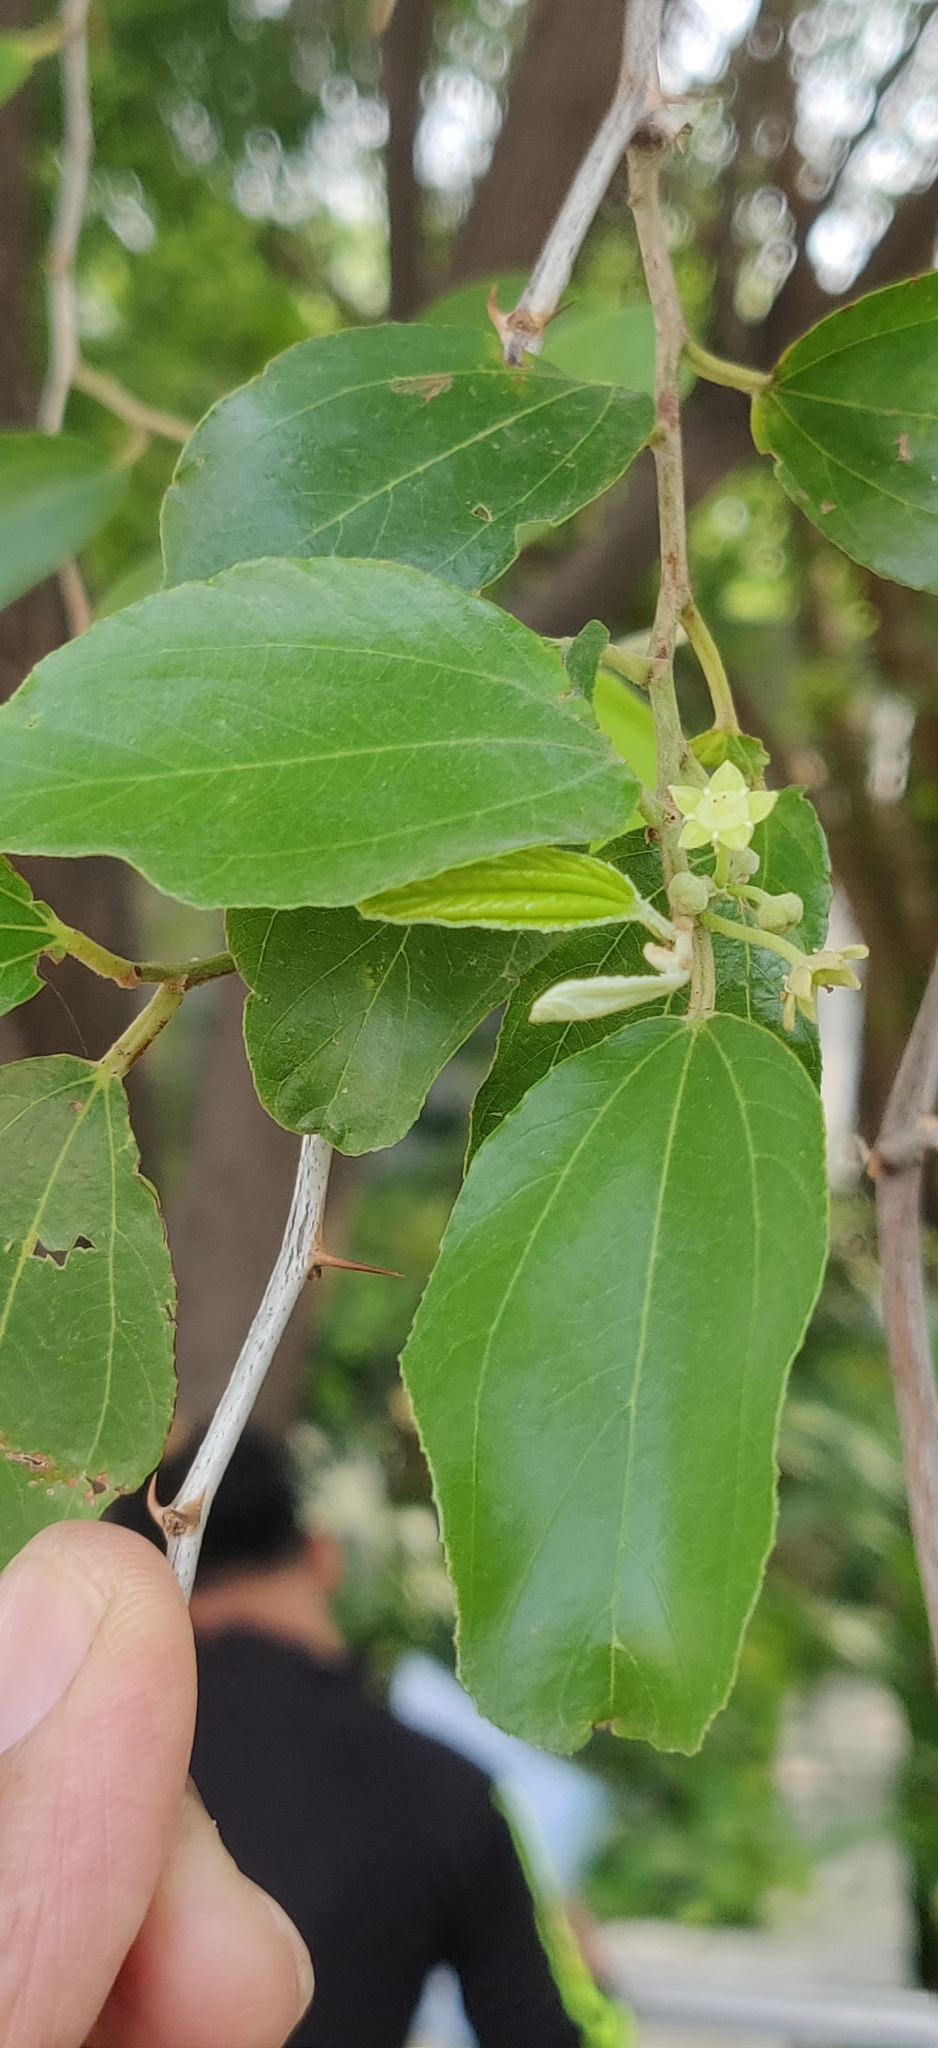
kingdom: Plantae
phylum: Tracheophyta
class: Magnoliopsida
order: Rosales
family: Rhamnaceae
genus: Ziziphus
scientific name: Ziziphus mauritiana
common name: Indian jujube
